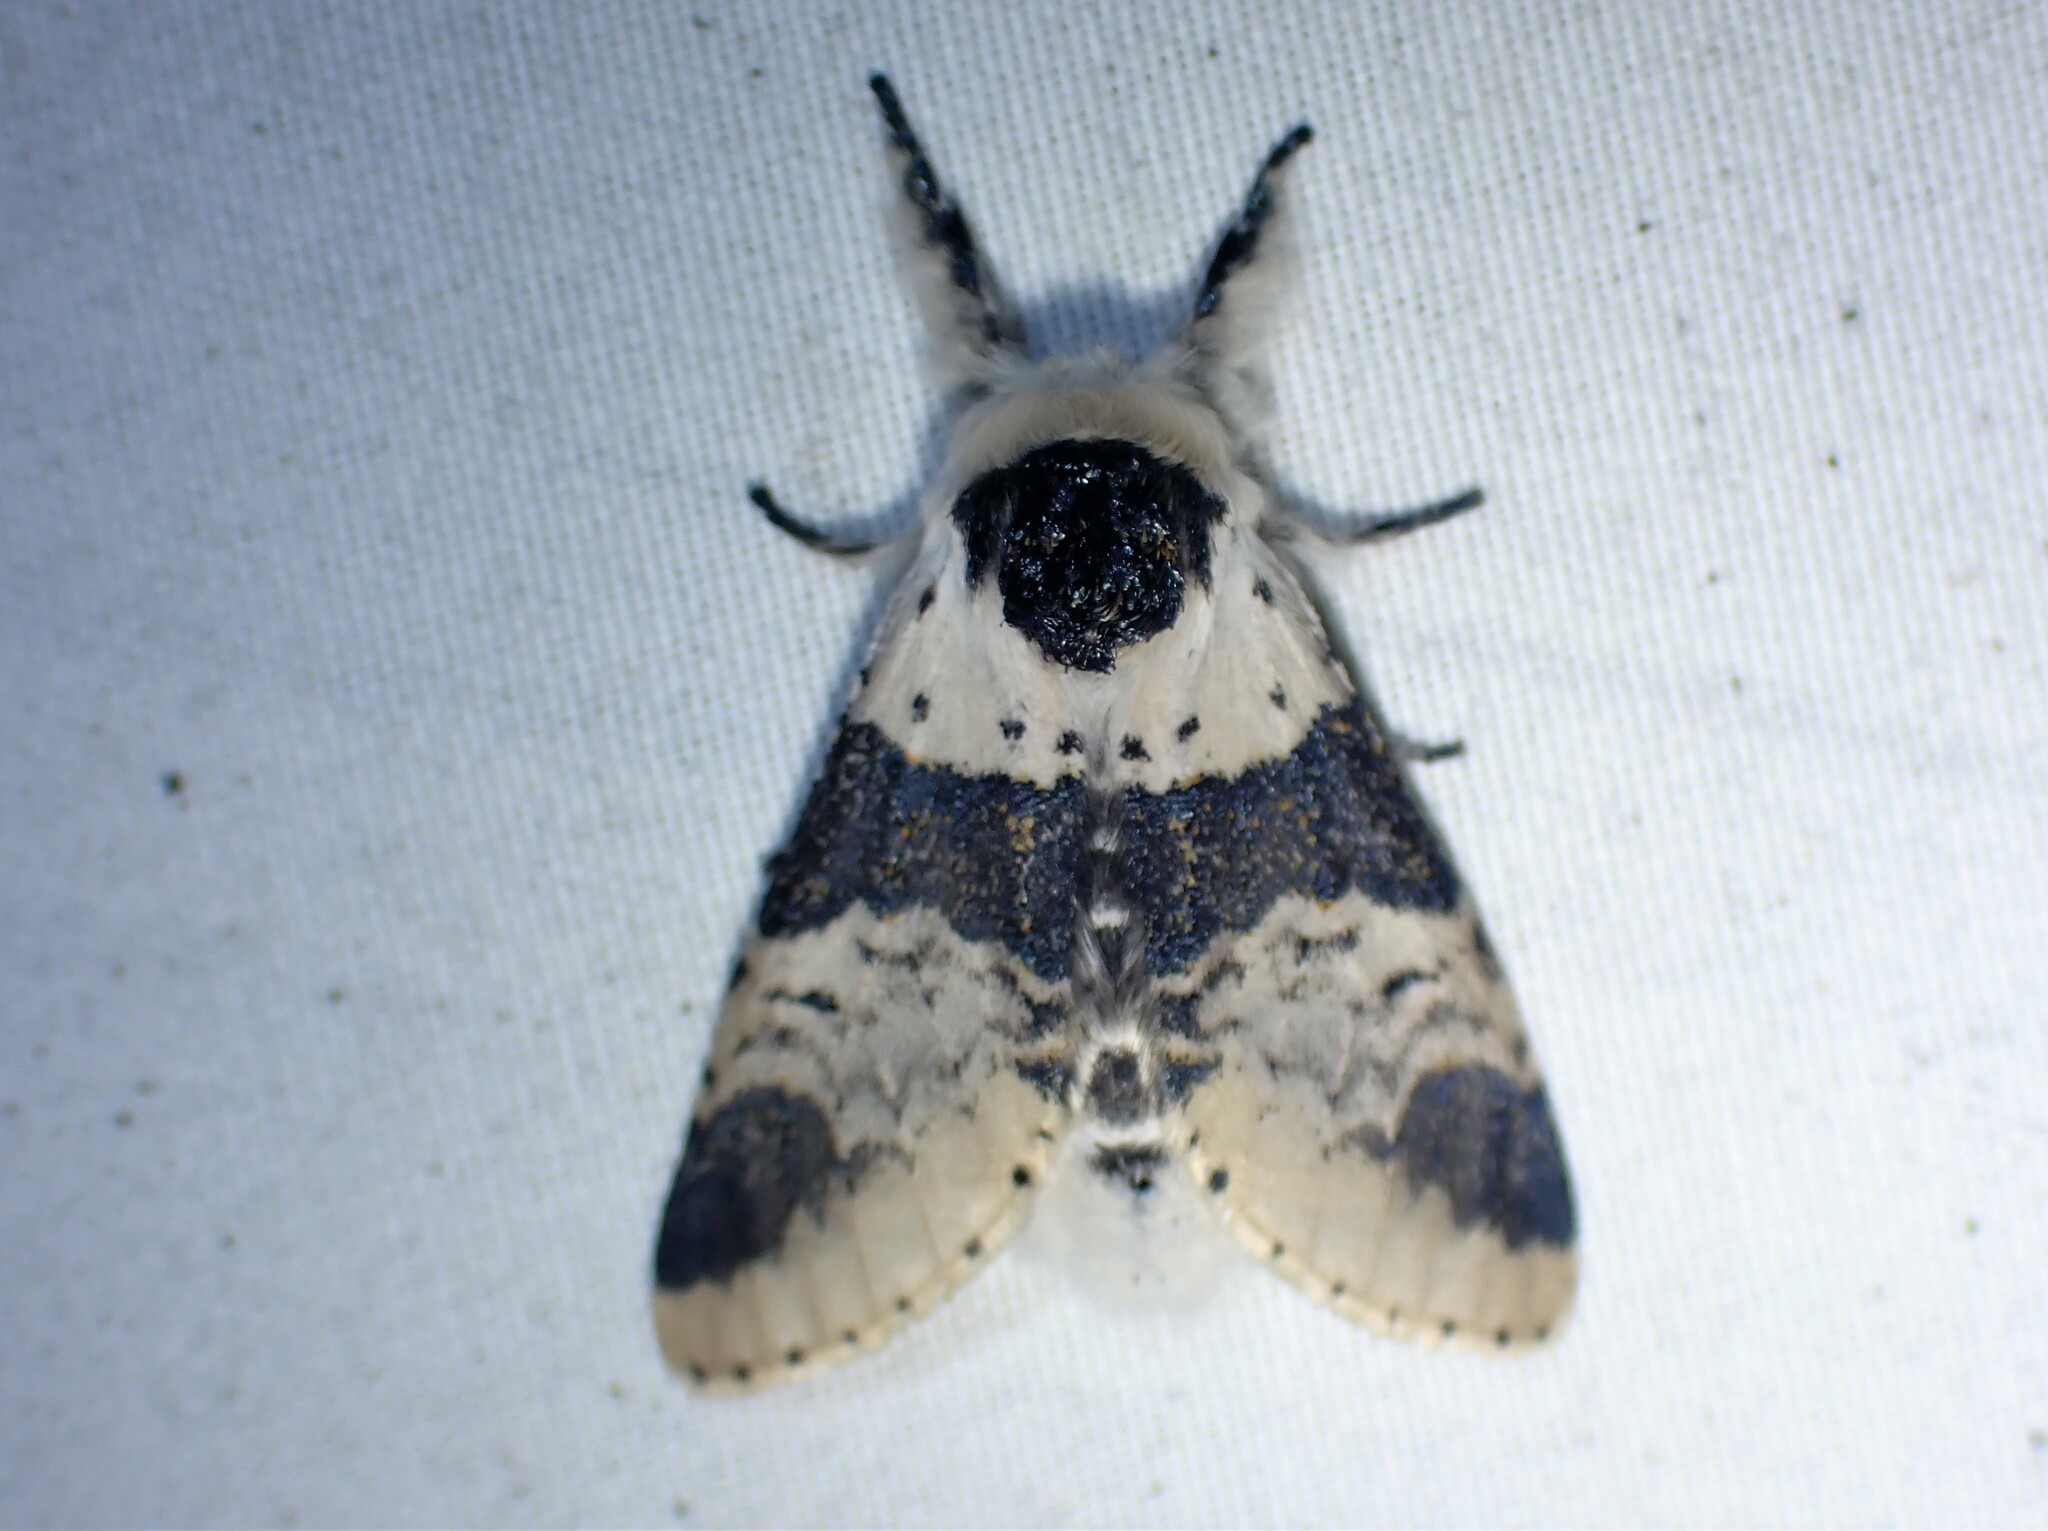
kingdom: Animalia
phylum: Arthropoda
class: Insecta
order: Lepidoptera
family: Notodontidae
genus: Furcula
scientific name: Furcula modesta
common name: Modest furcula moth
